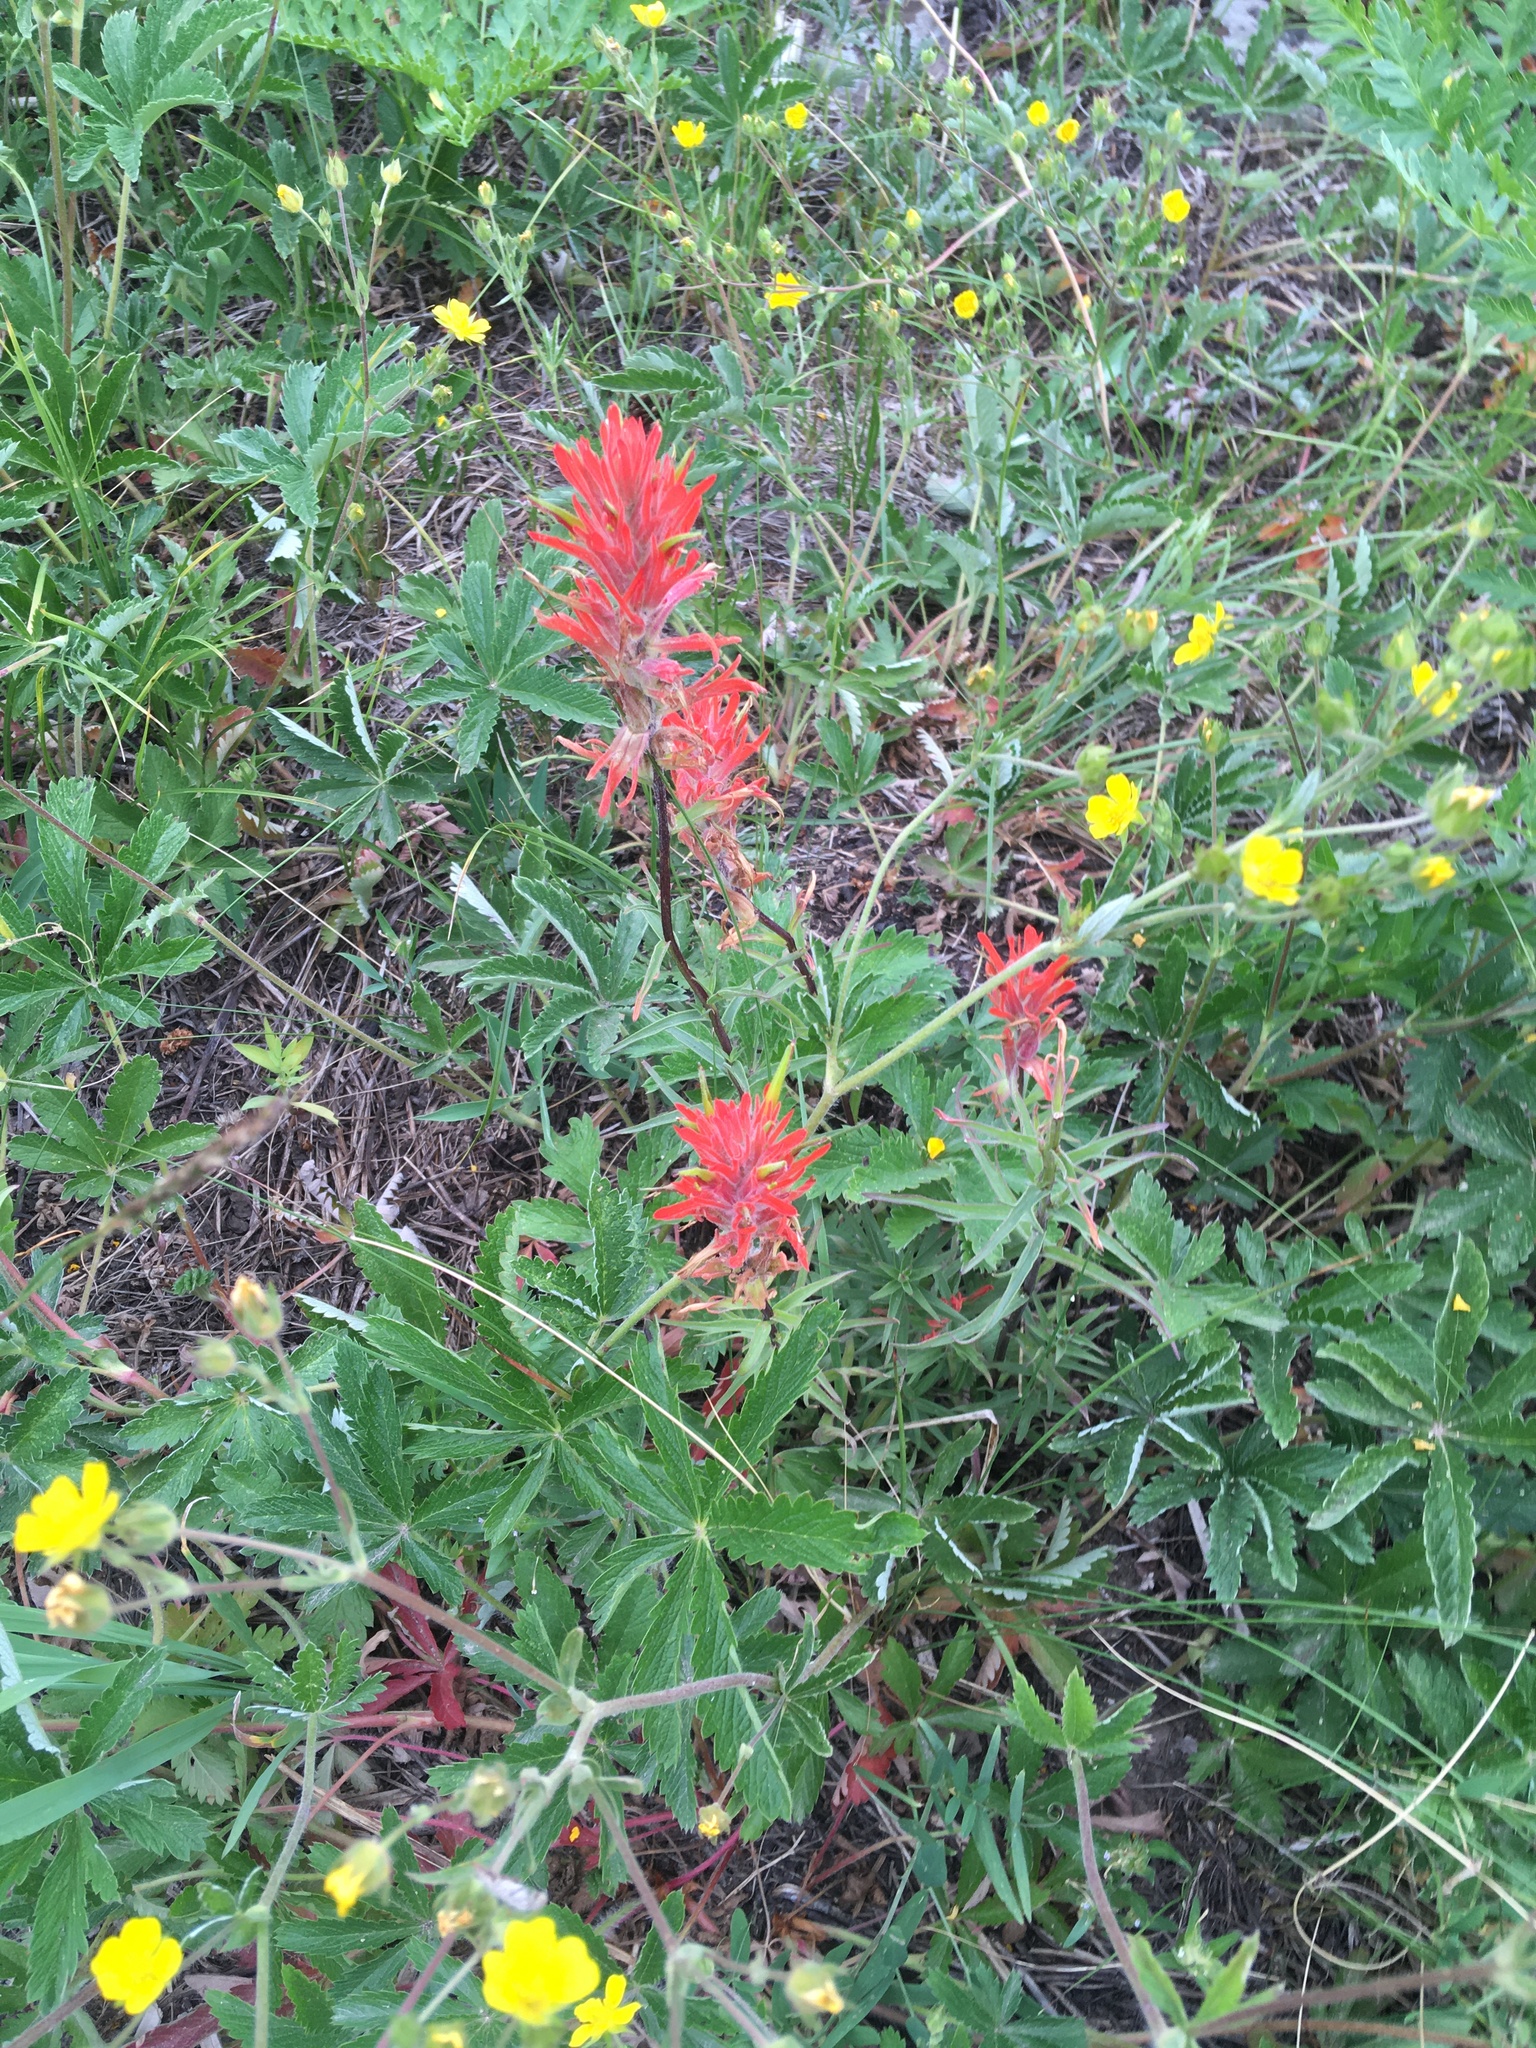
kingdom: Plantae
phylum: Tracheophyta
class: Magnoliopsida
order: Lamiales
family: Orobanchaceae
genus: Castilleja
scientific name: Castilleja miniata
